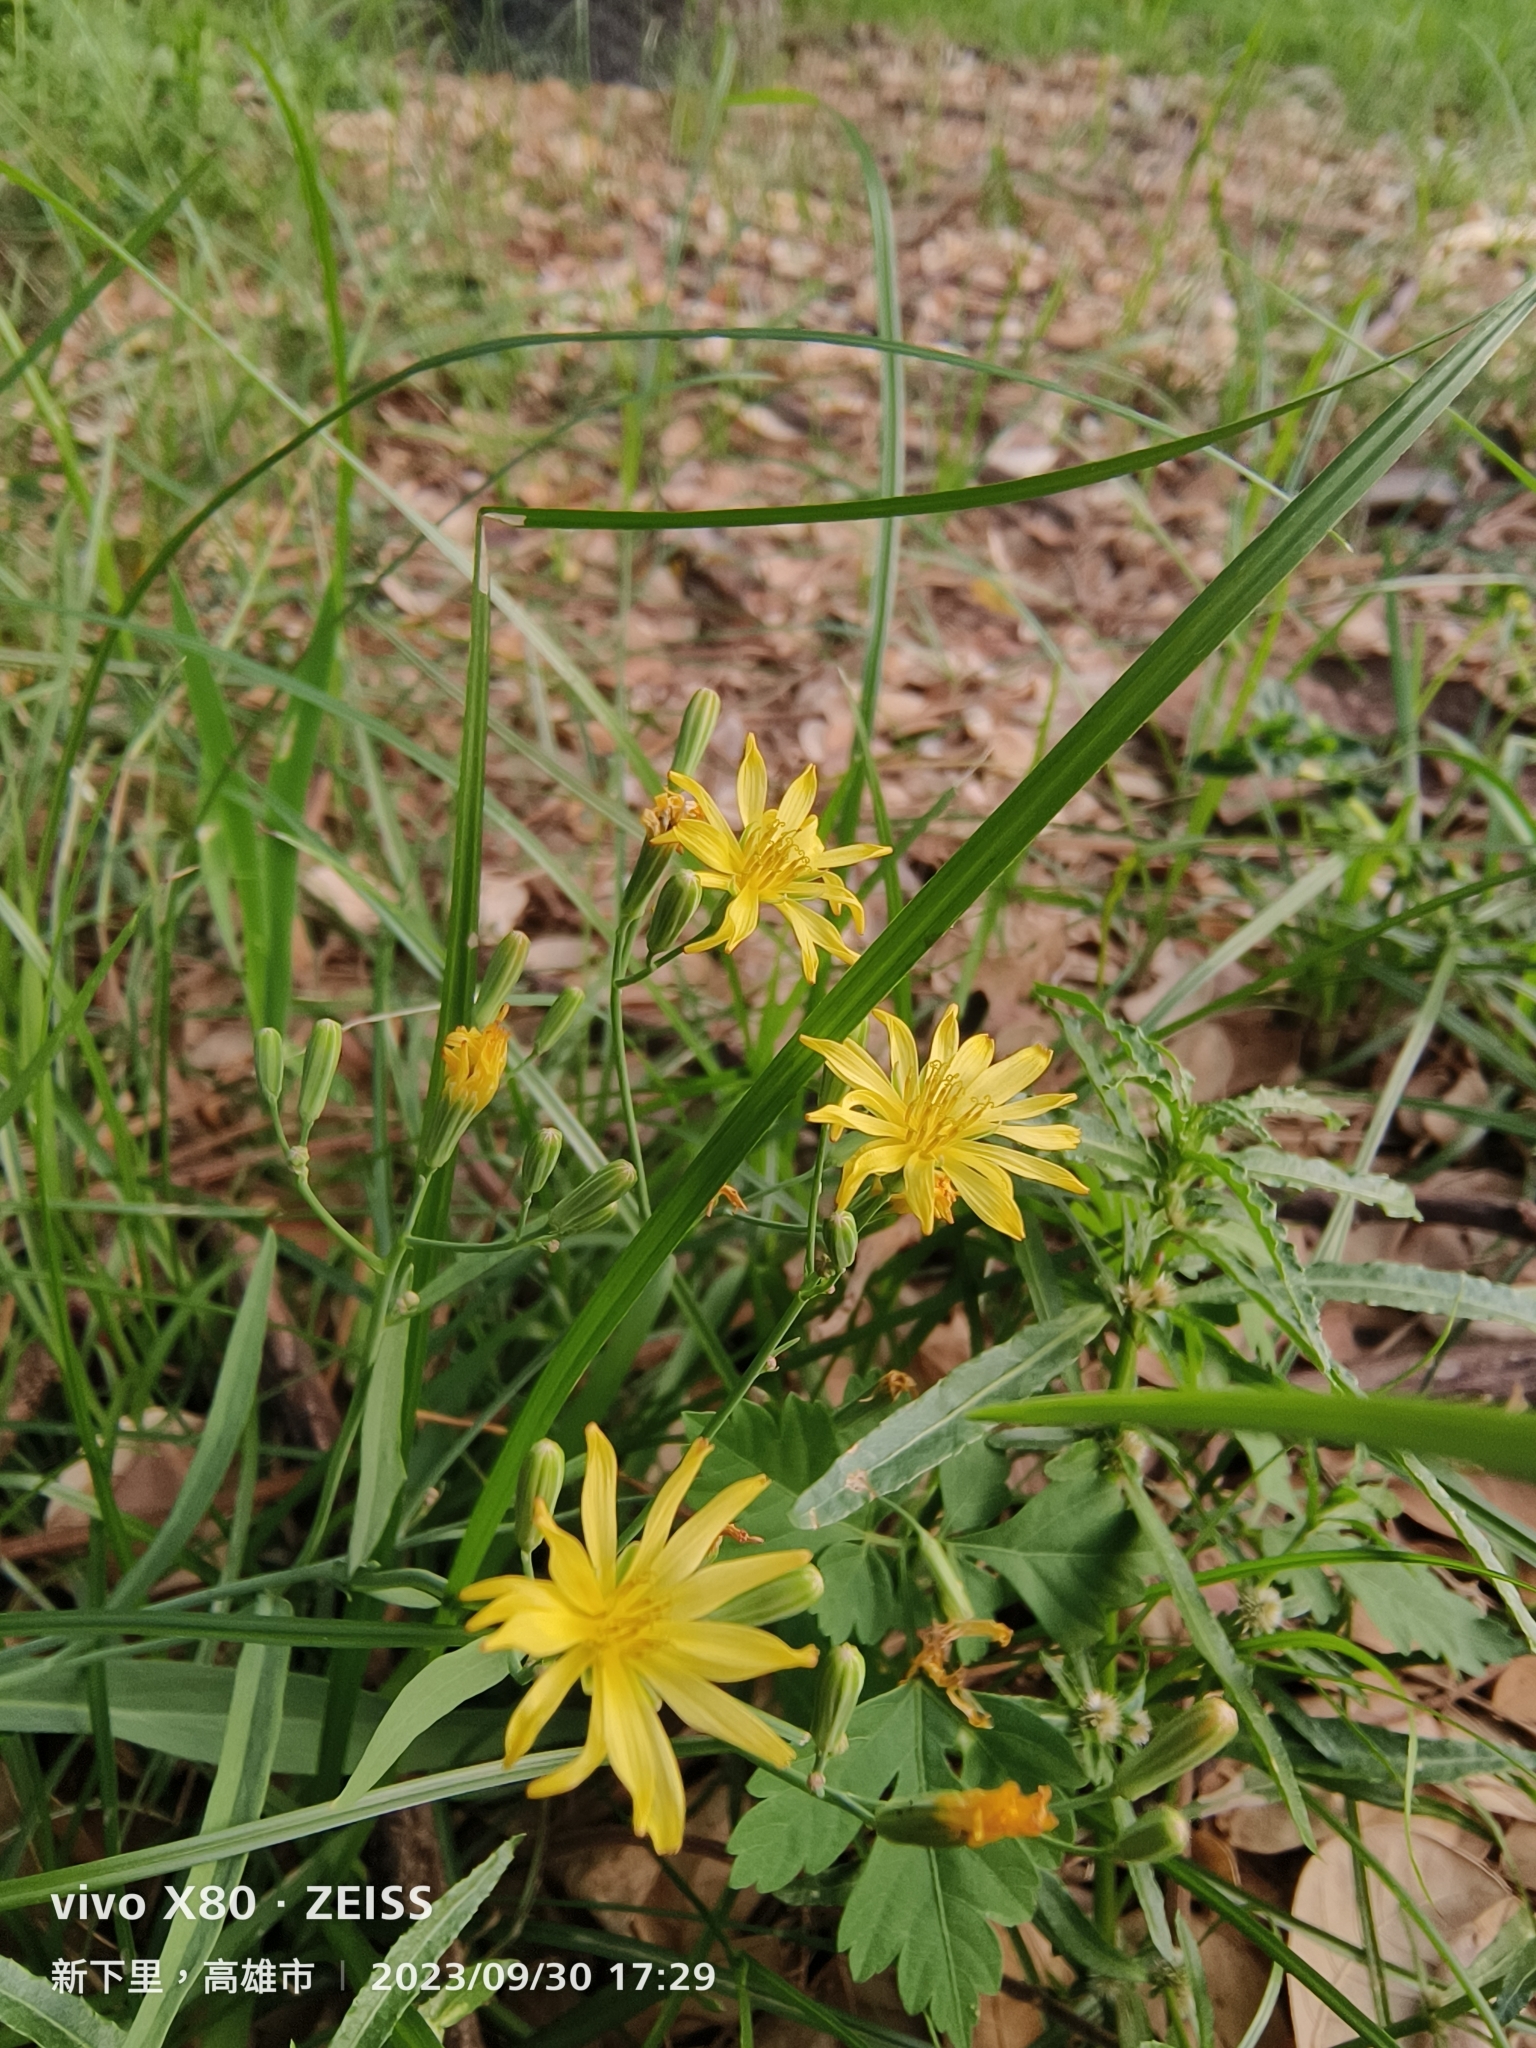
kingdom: Plantae
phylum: Tracheophyta
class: Magnoliopsida
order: Asterales
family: Asteraceae
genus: Ixeris
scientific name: Ixeris chinensis
